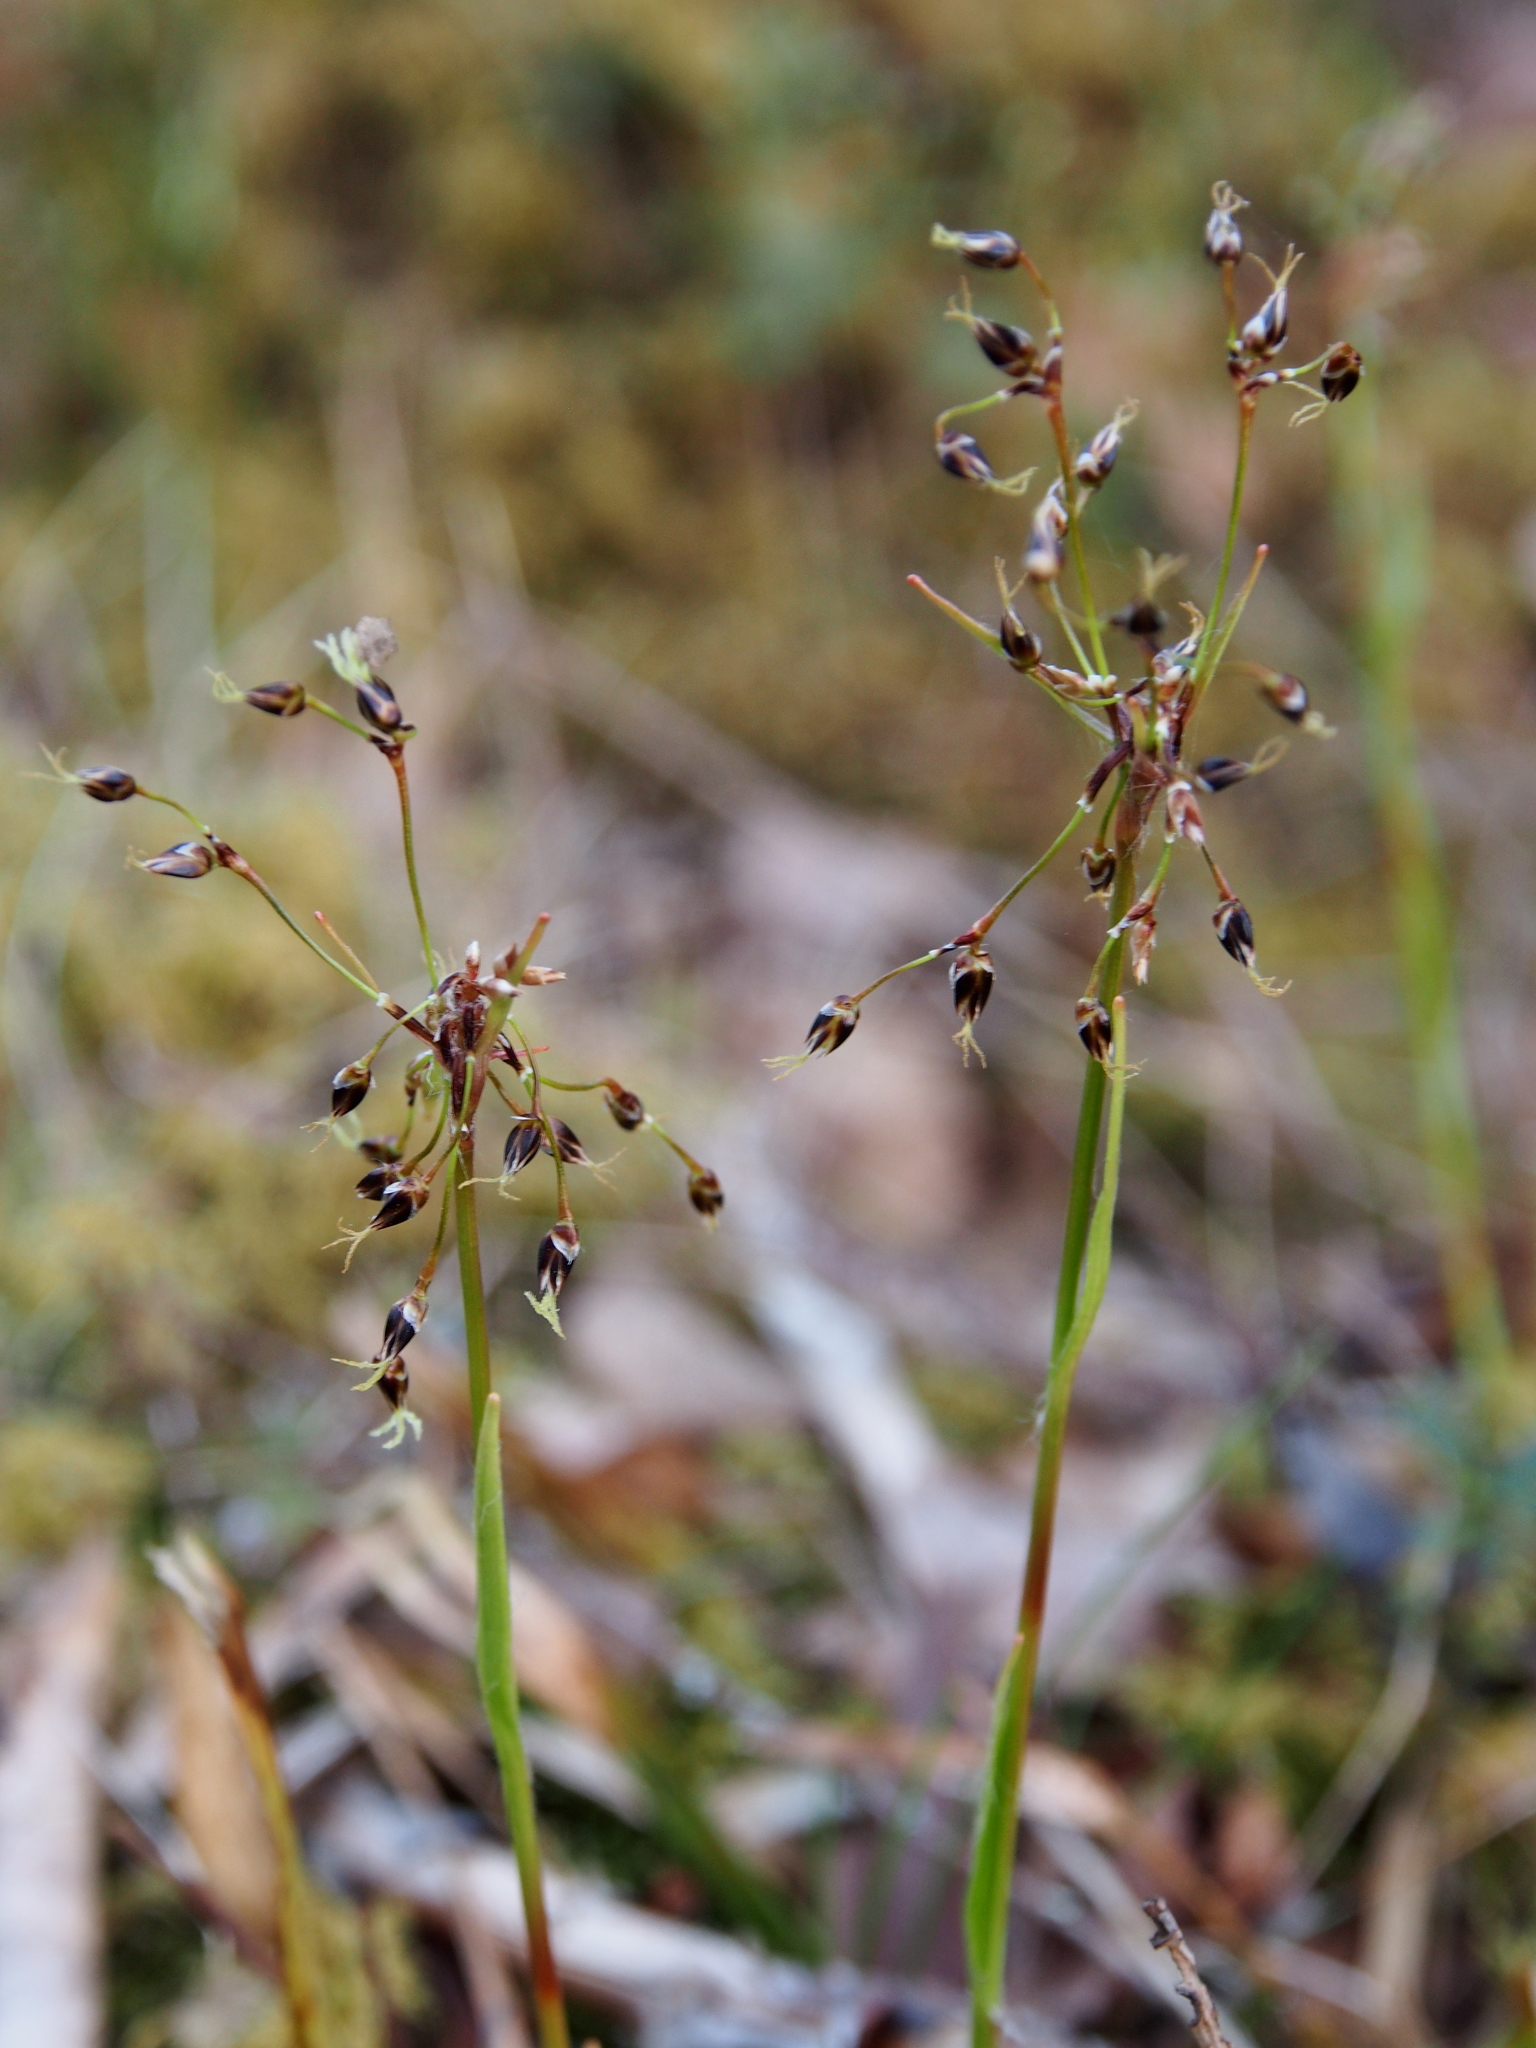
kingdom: Plantae
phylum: Tracheophyta
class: Liliopsida
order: Poales
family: Juncaceae
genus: Luzula
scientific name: Luzula pilosa
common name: Hairy wood-rush
